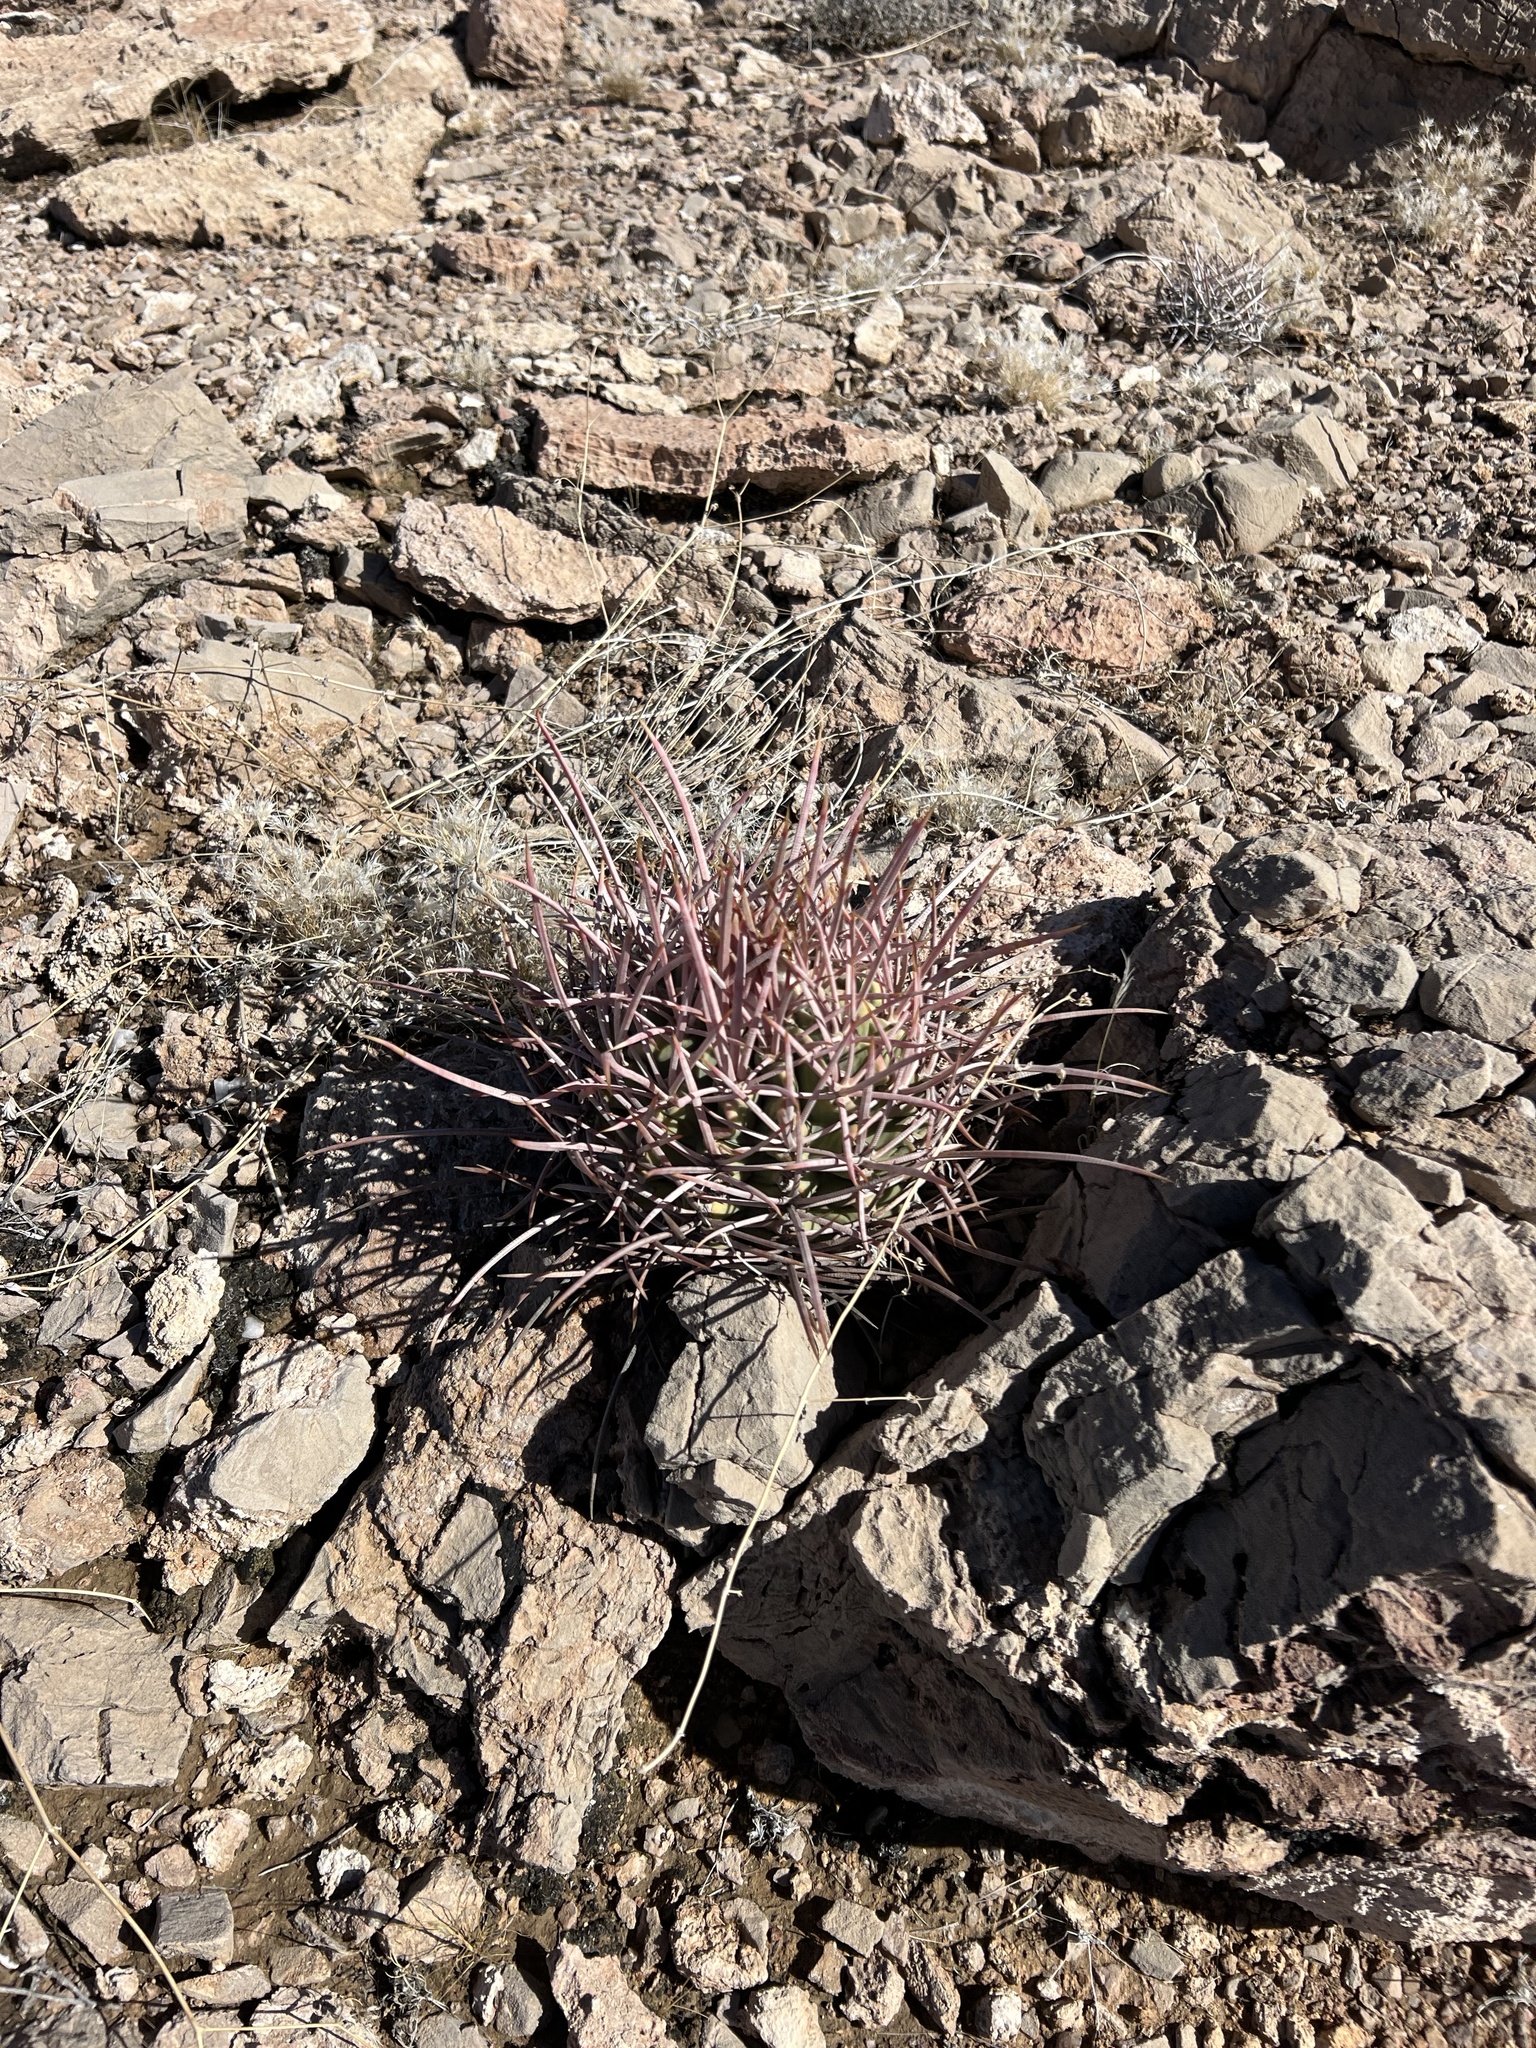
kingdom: Plantae
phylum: Tracheophyta
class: Magnoliopsida
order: Caryophyllales
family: Cactaceae
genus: Echinocactus
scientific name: Echinocactus polycephalus
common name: Cottontop cactus
